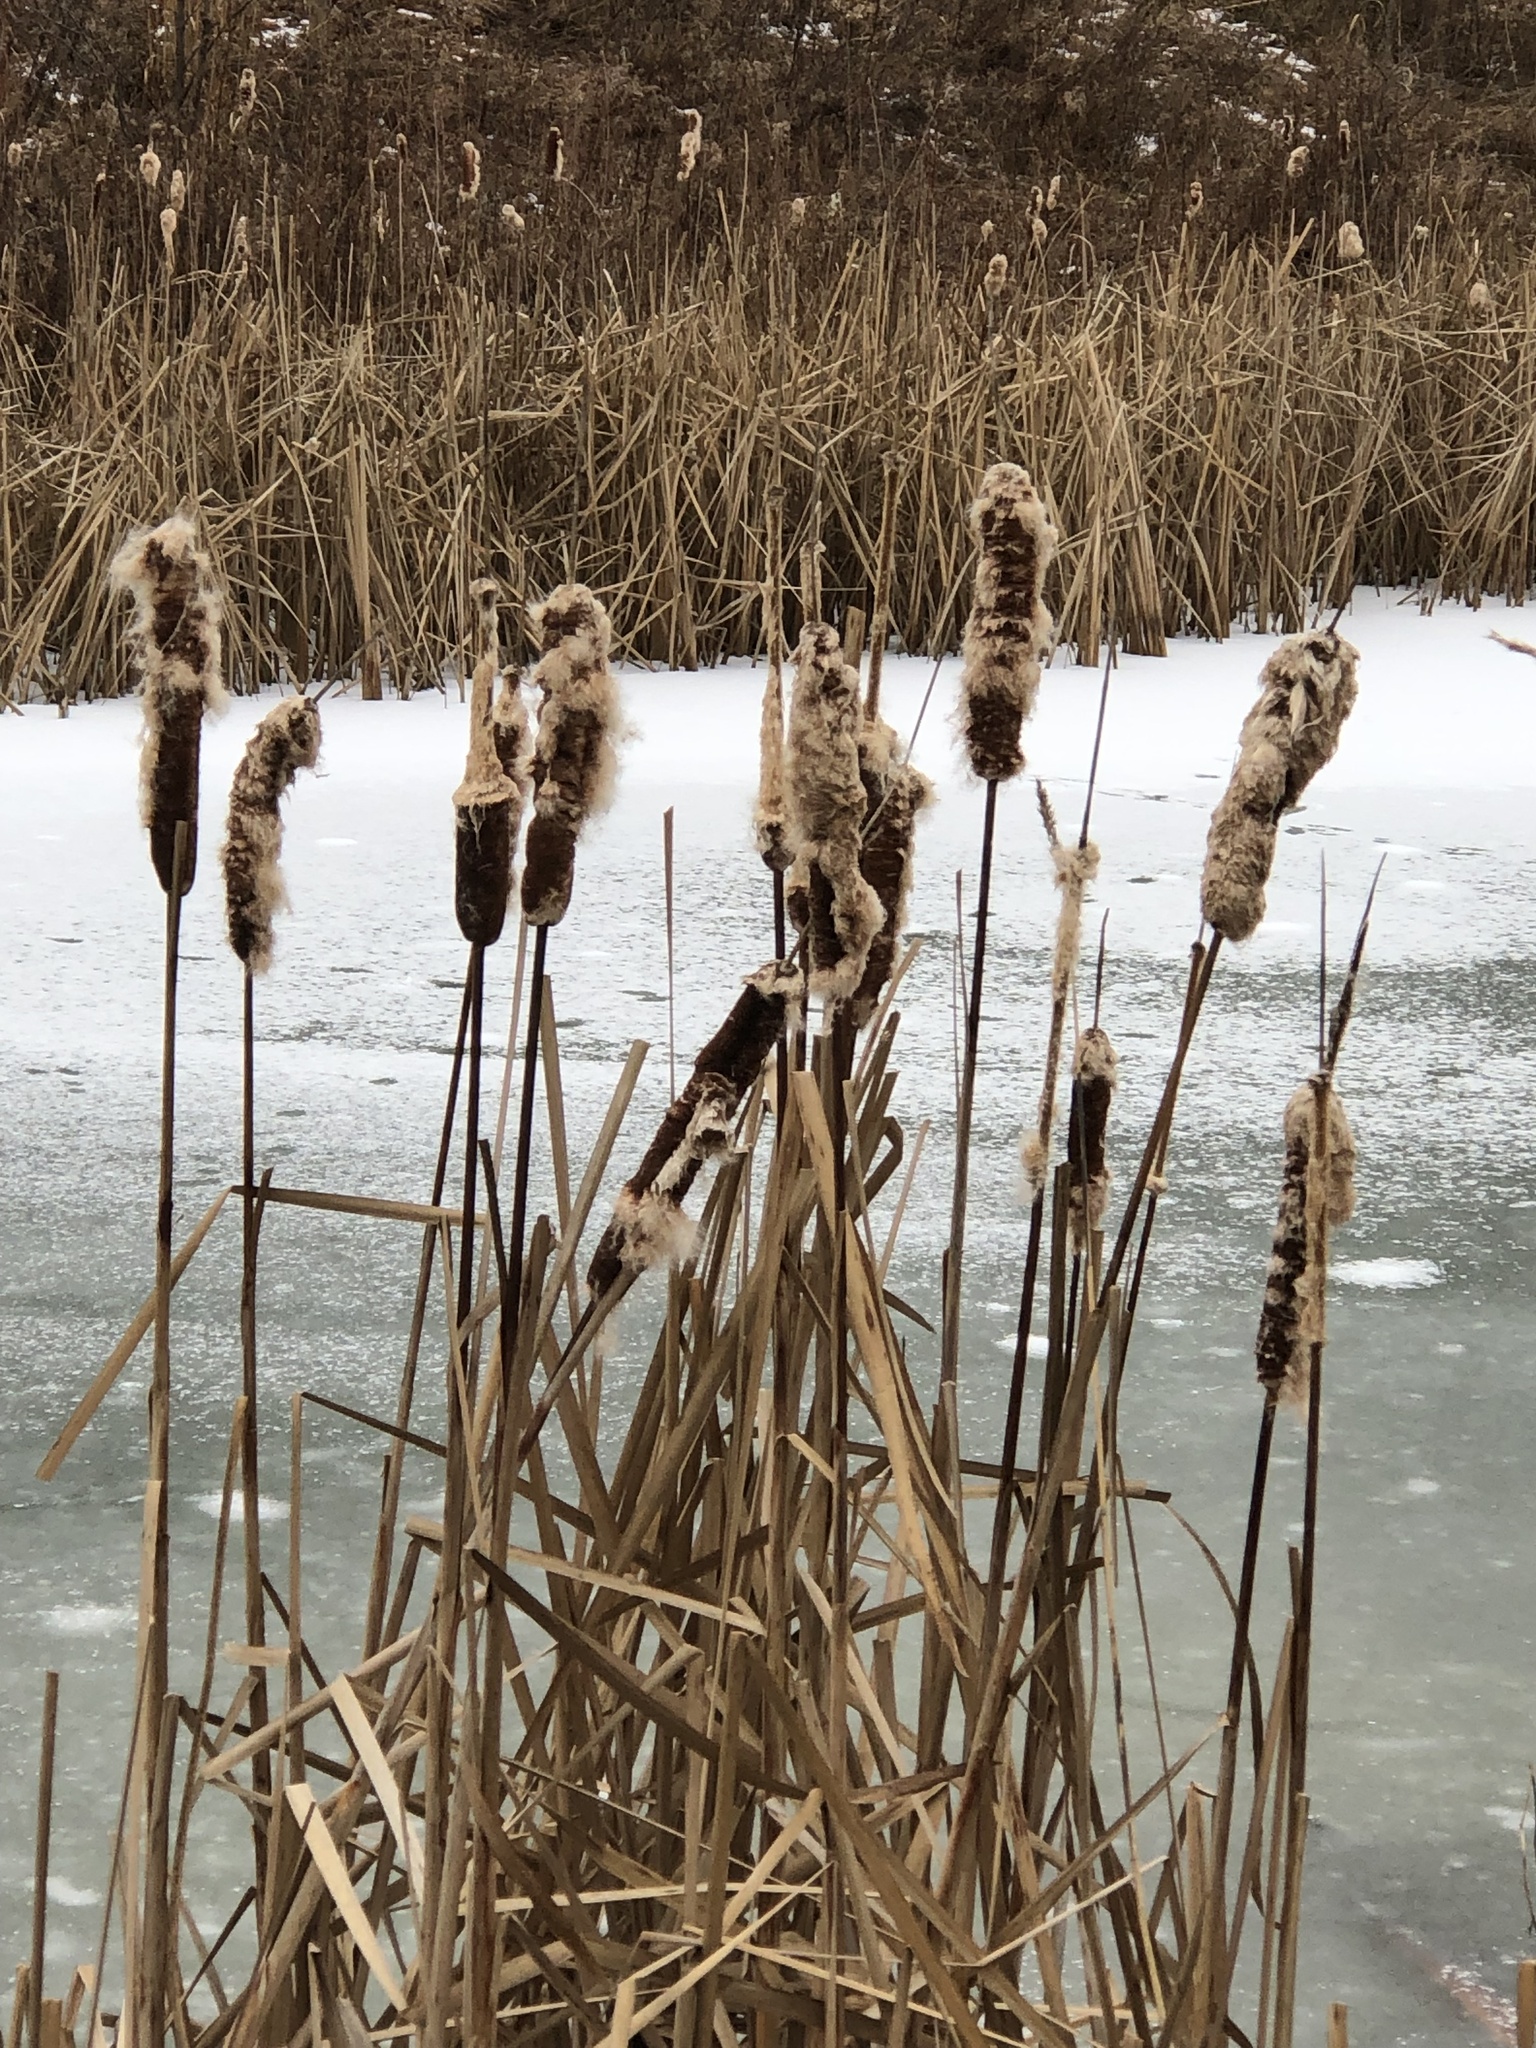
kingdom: Plantae
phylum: Tracheophyta
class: Liliopsida
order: Poales
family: Typhaceae
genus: Typha
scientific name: Typha latifolia
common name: Broadleaf cattail
